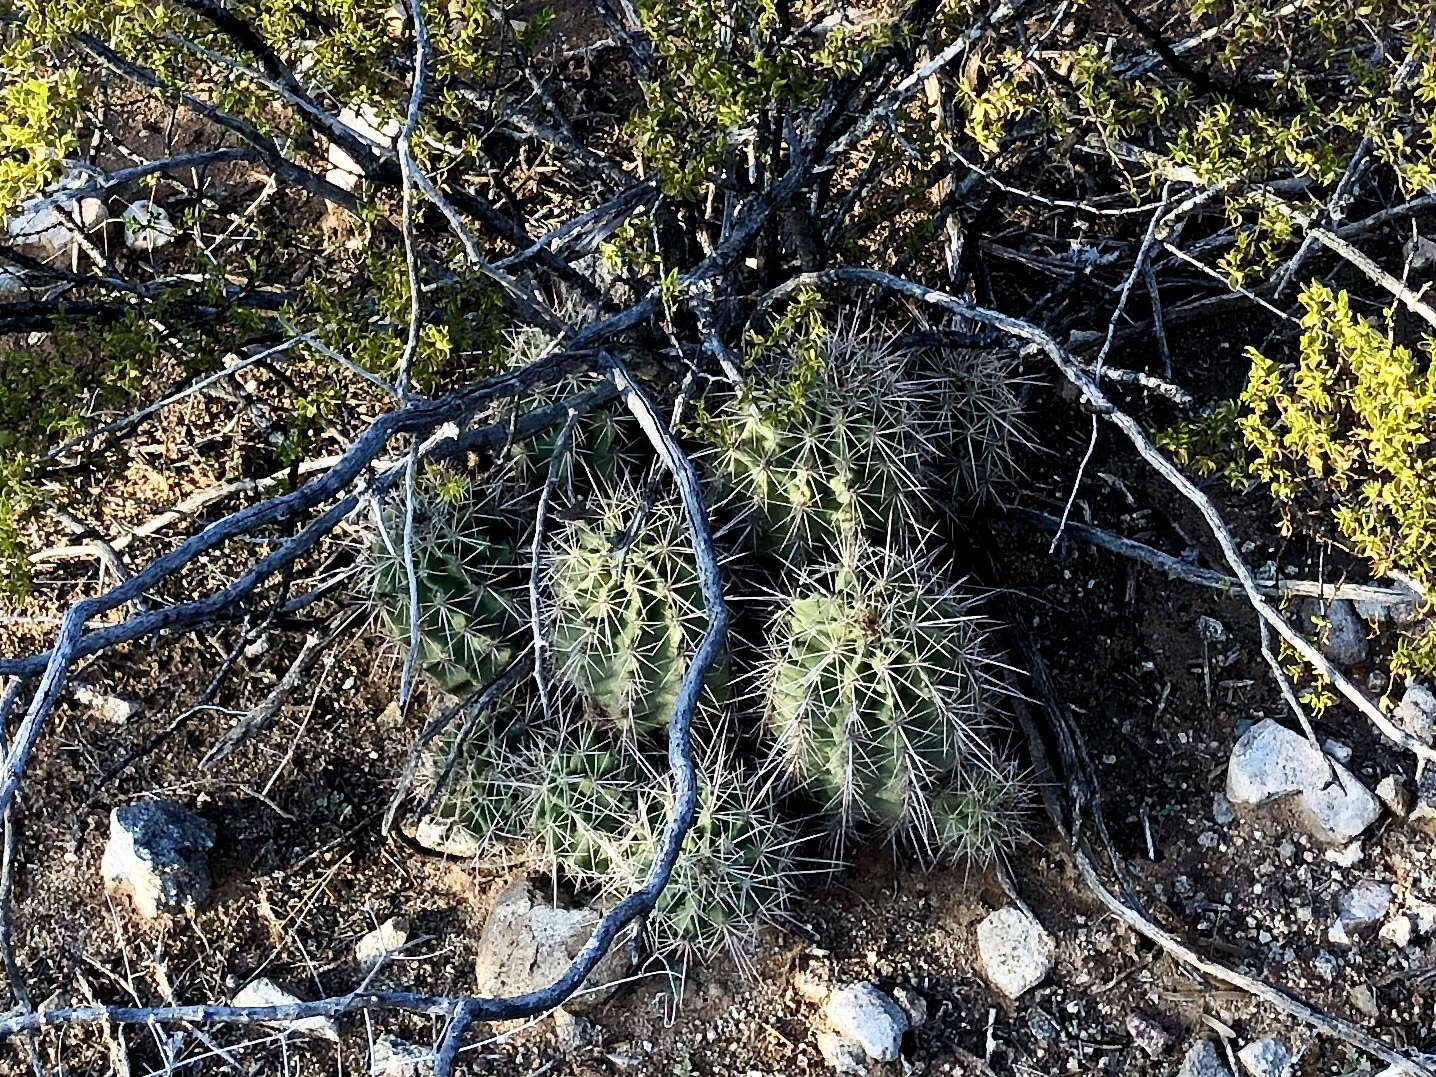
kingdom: Plantae
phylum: Tracheophyta
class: Magnoliopsida
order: Caryophyllales
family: Cactaceae
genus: Echinocereus
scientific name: Echinocereus coccineus
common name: Scarlet hedgehog cactus
